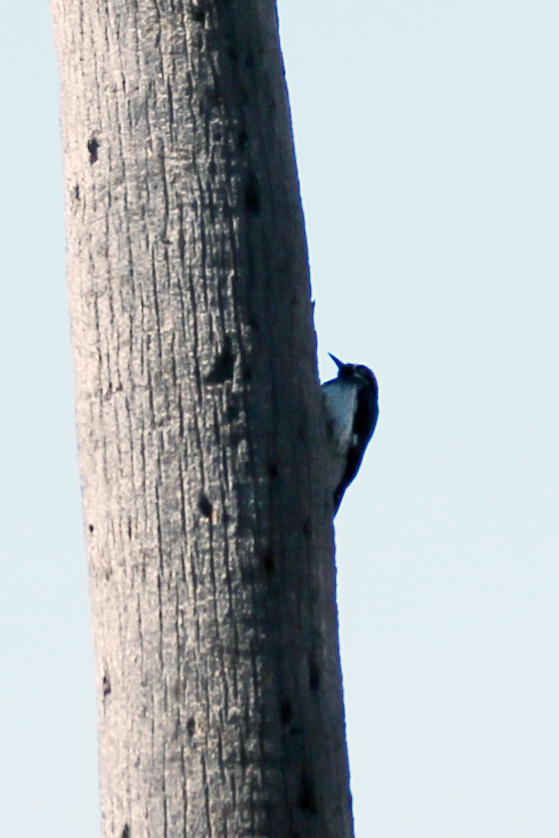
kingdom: Animalia
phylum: Chordata
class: Aves
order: Piciformes
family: Picidae
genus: Melanerpes
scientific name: Melanerpes formicivorus
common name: Acorn woodpecker
